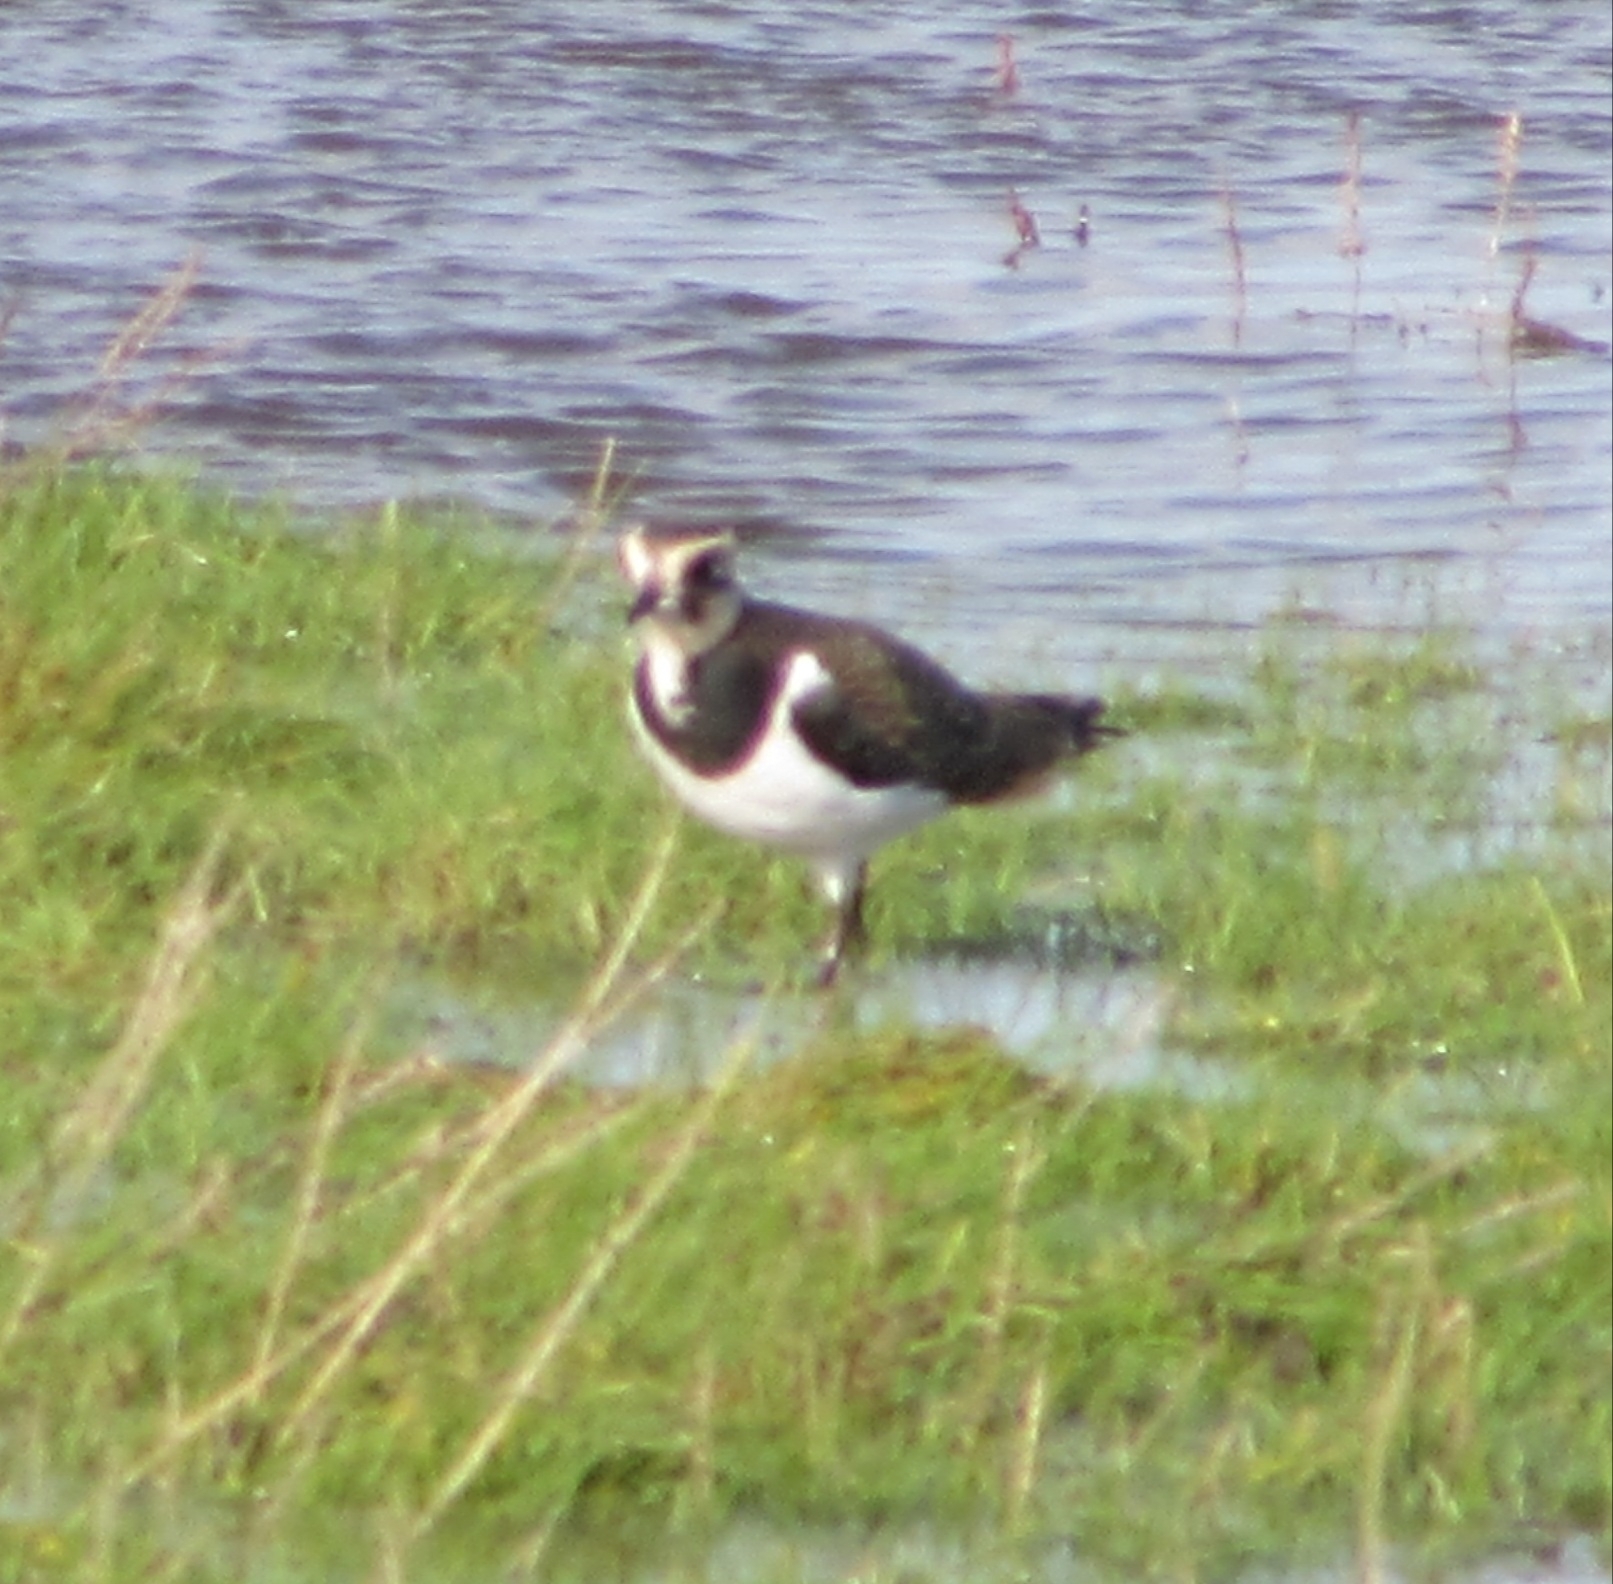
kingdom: Animalia
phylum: Chordata
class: Aves
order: Charadriiformes
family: Charadriidae
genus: Vanellus
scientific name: Vanellus vanellus
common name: Northern lapwing
